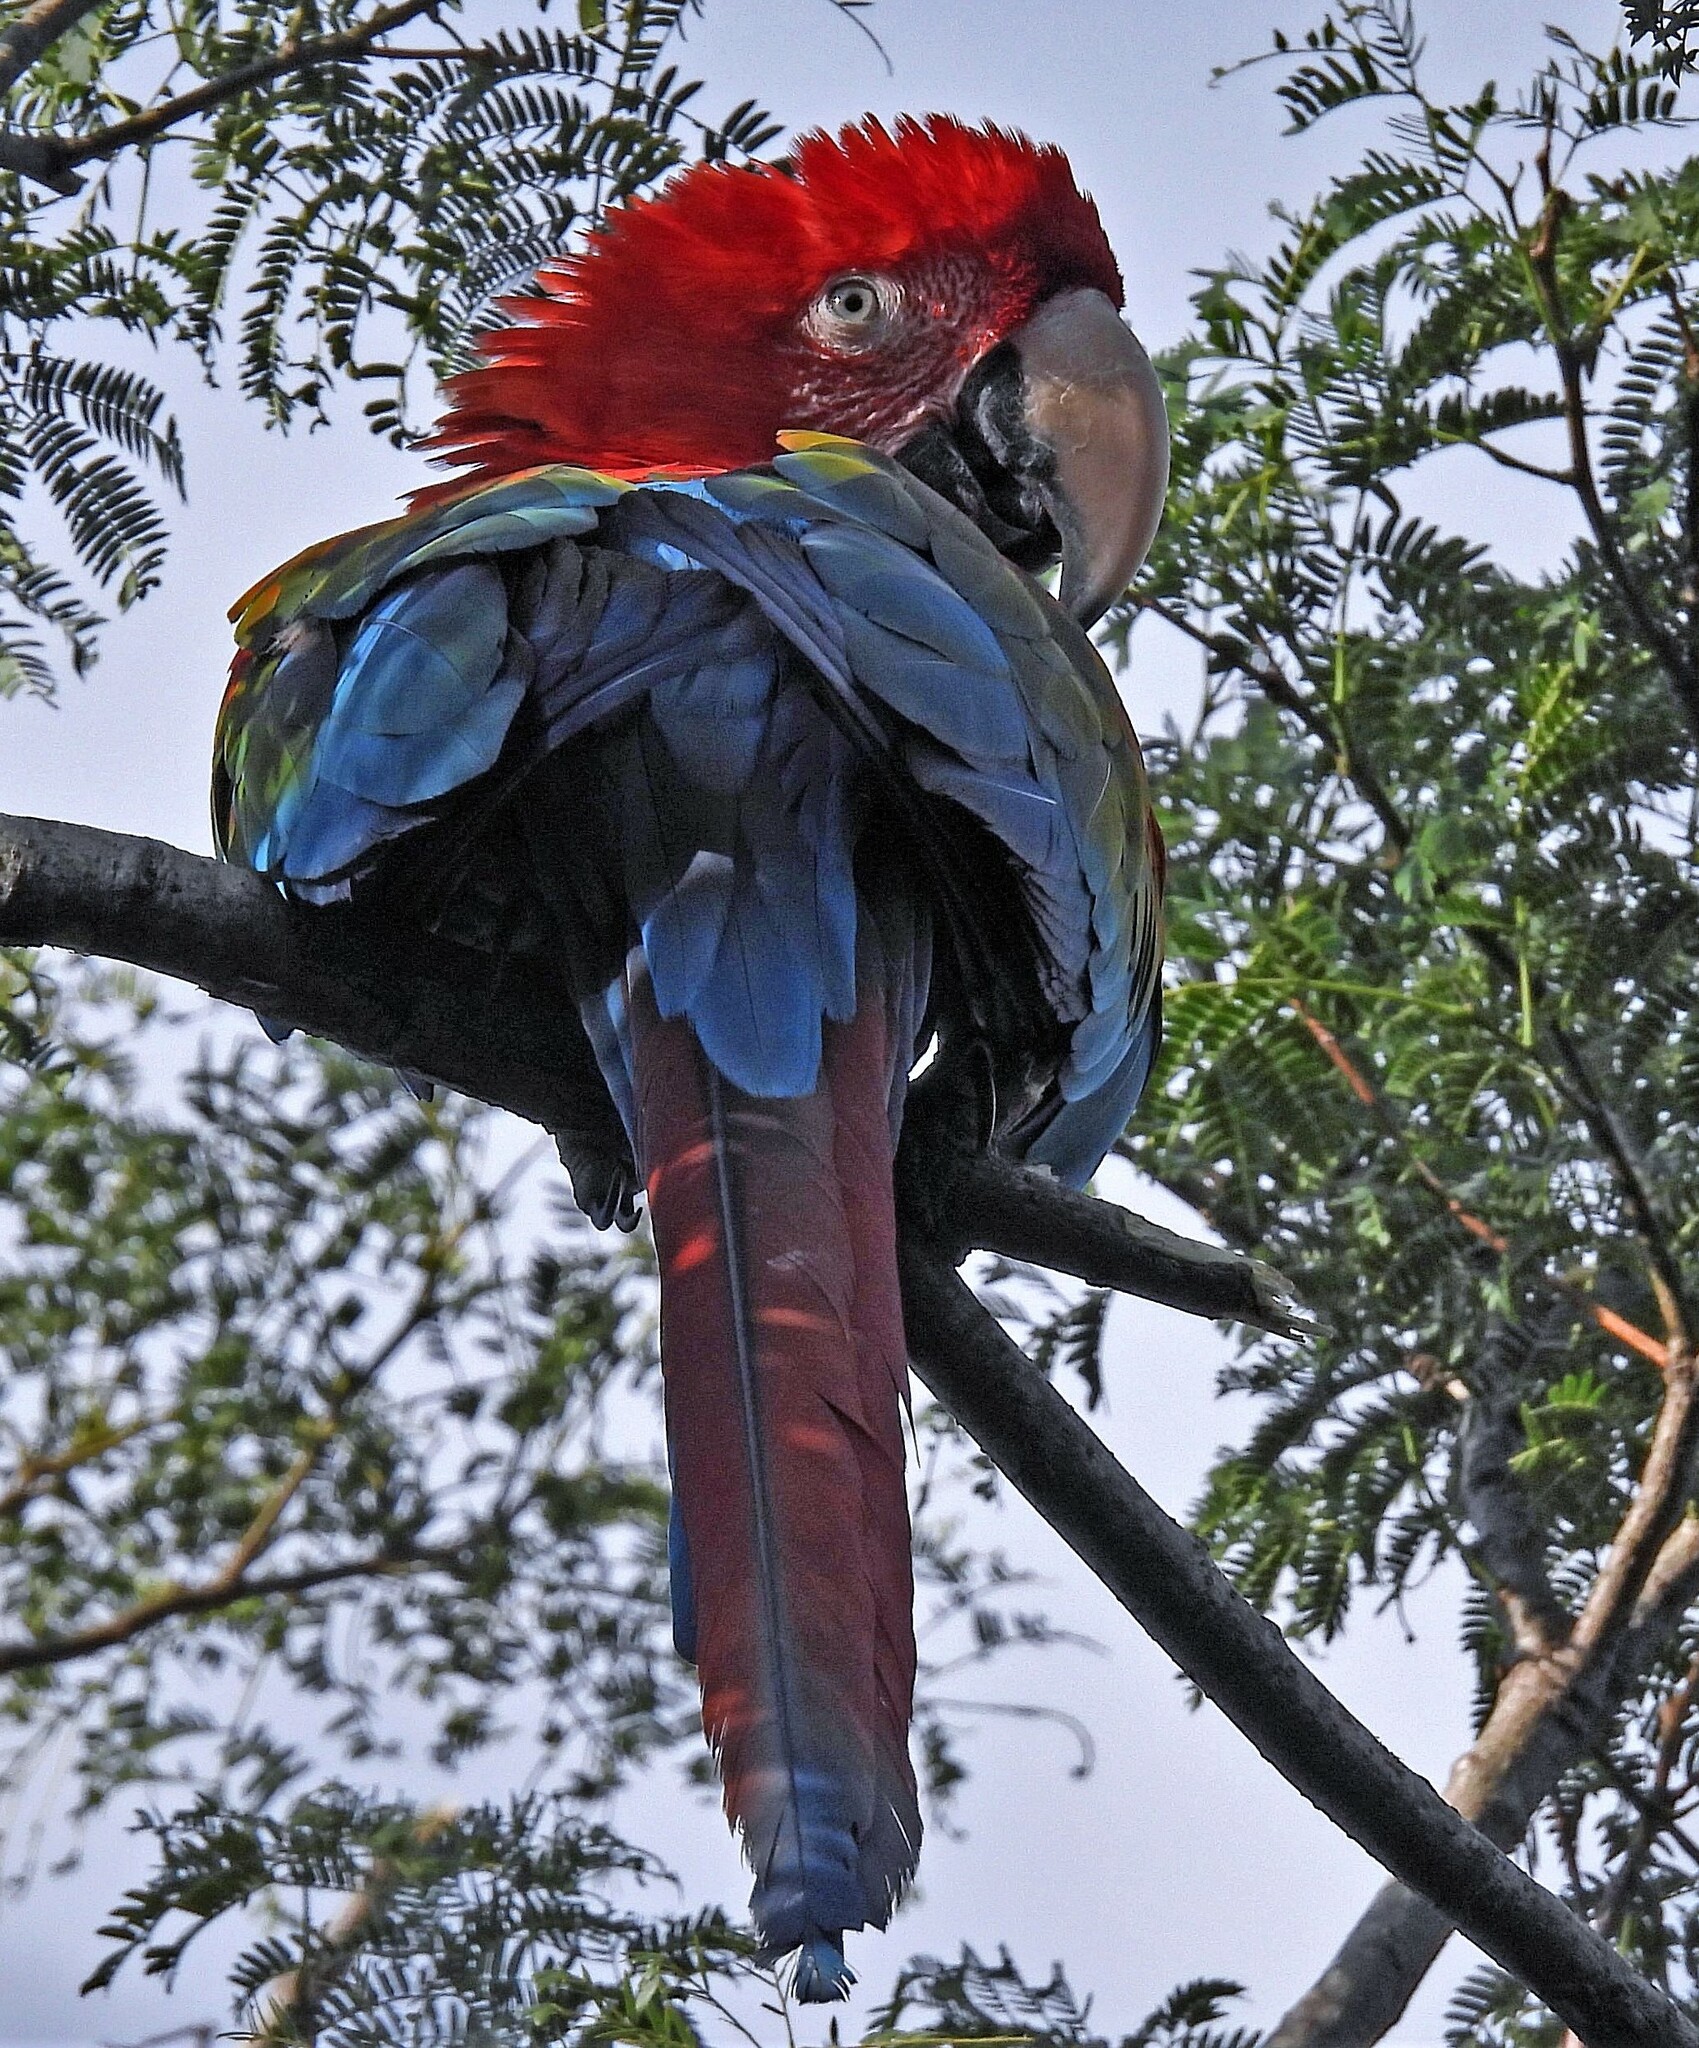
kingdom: Animalia
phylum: Chordata
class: Aves
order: Psittaciformes
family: Psittacidae
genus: Ara
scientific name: Ara chloropterus
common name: Red-and-green macaw
